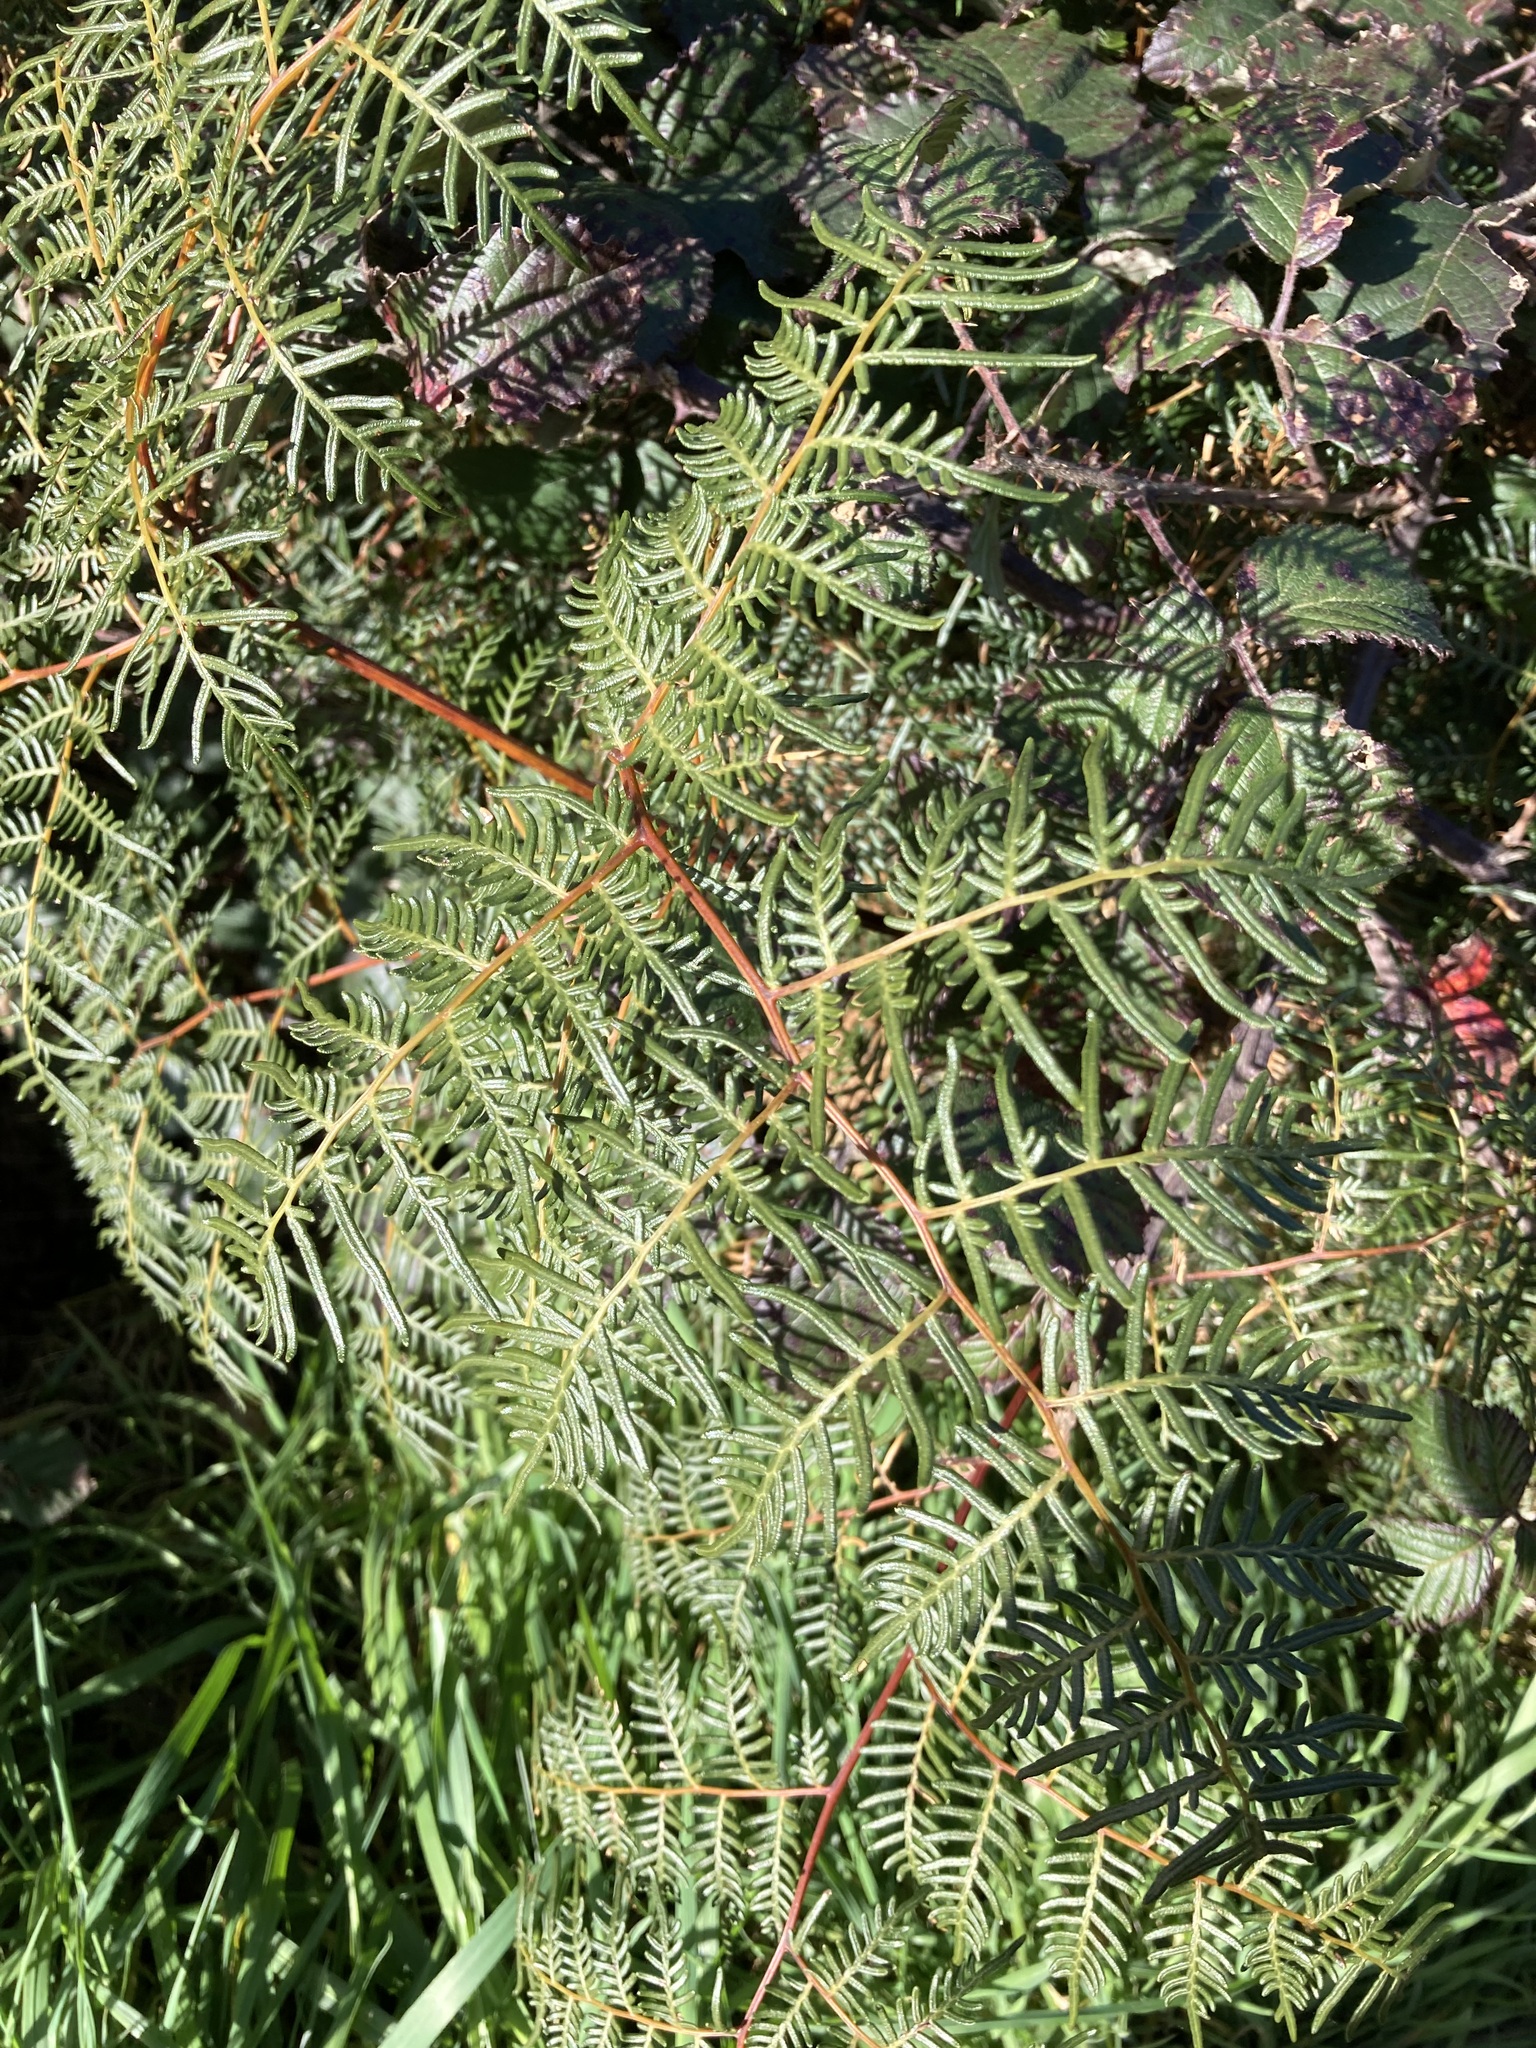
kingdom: Plantae
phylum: Tracheophyta
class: Polypodiopsida
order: Polypodiales
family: Dennstaedtiaceae
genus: Pteridium
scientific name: Pteridium esculentum
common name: Bracken fern
